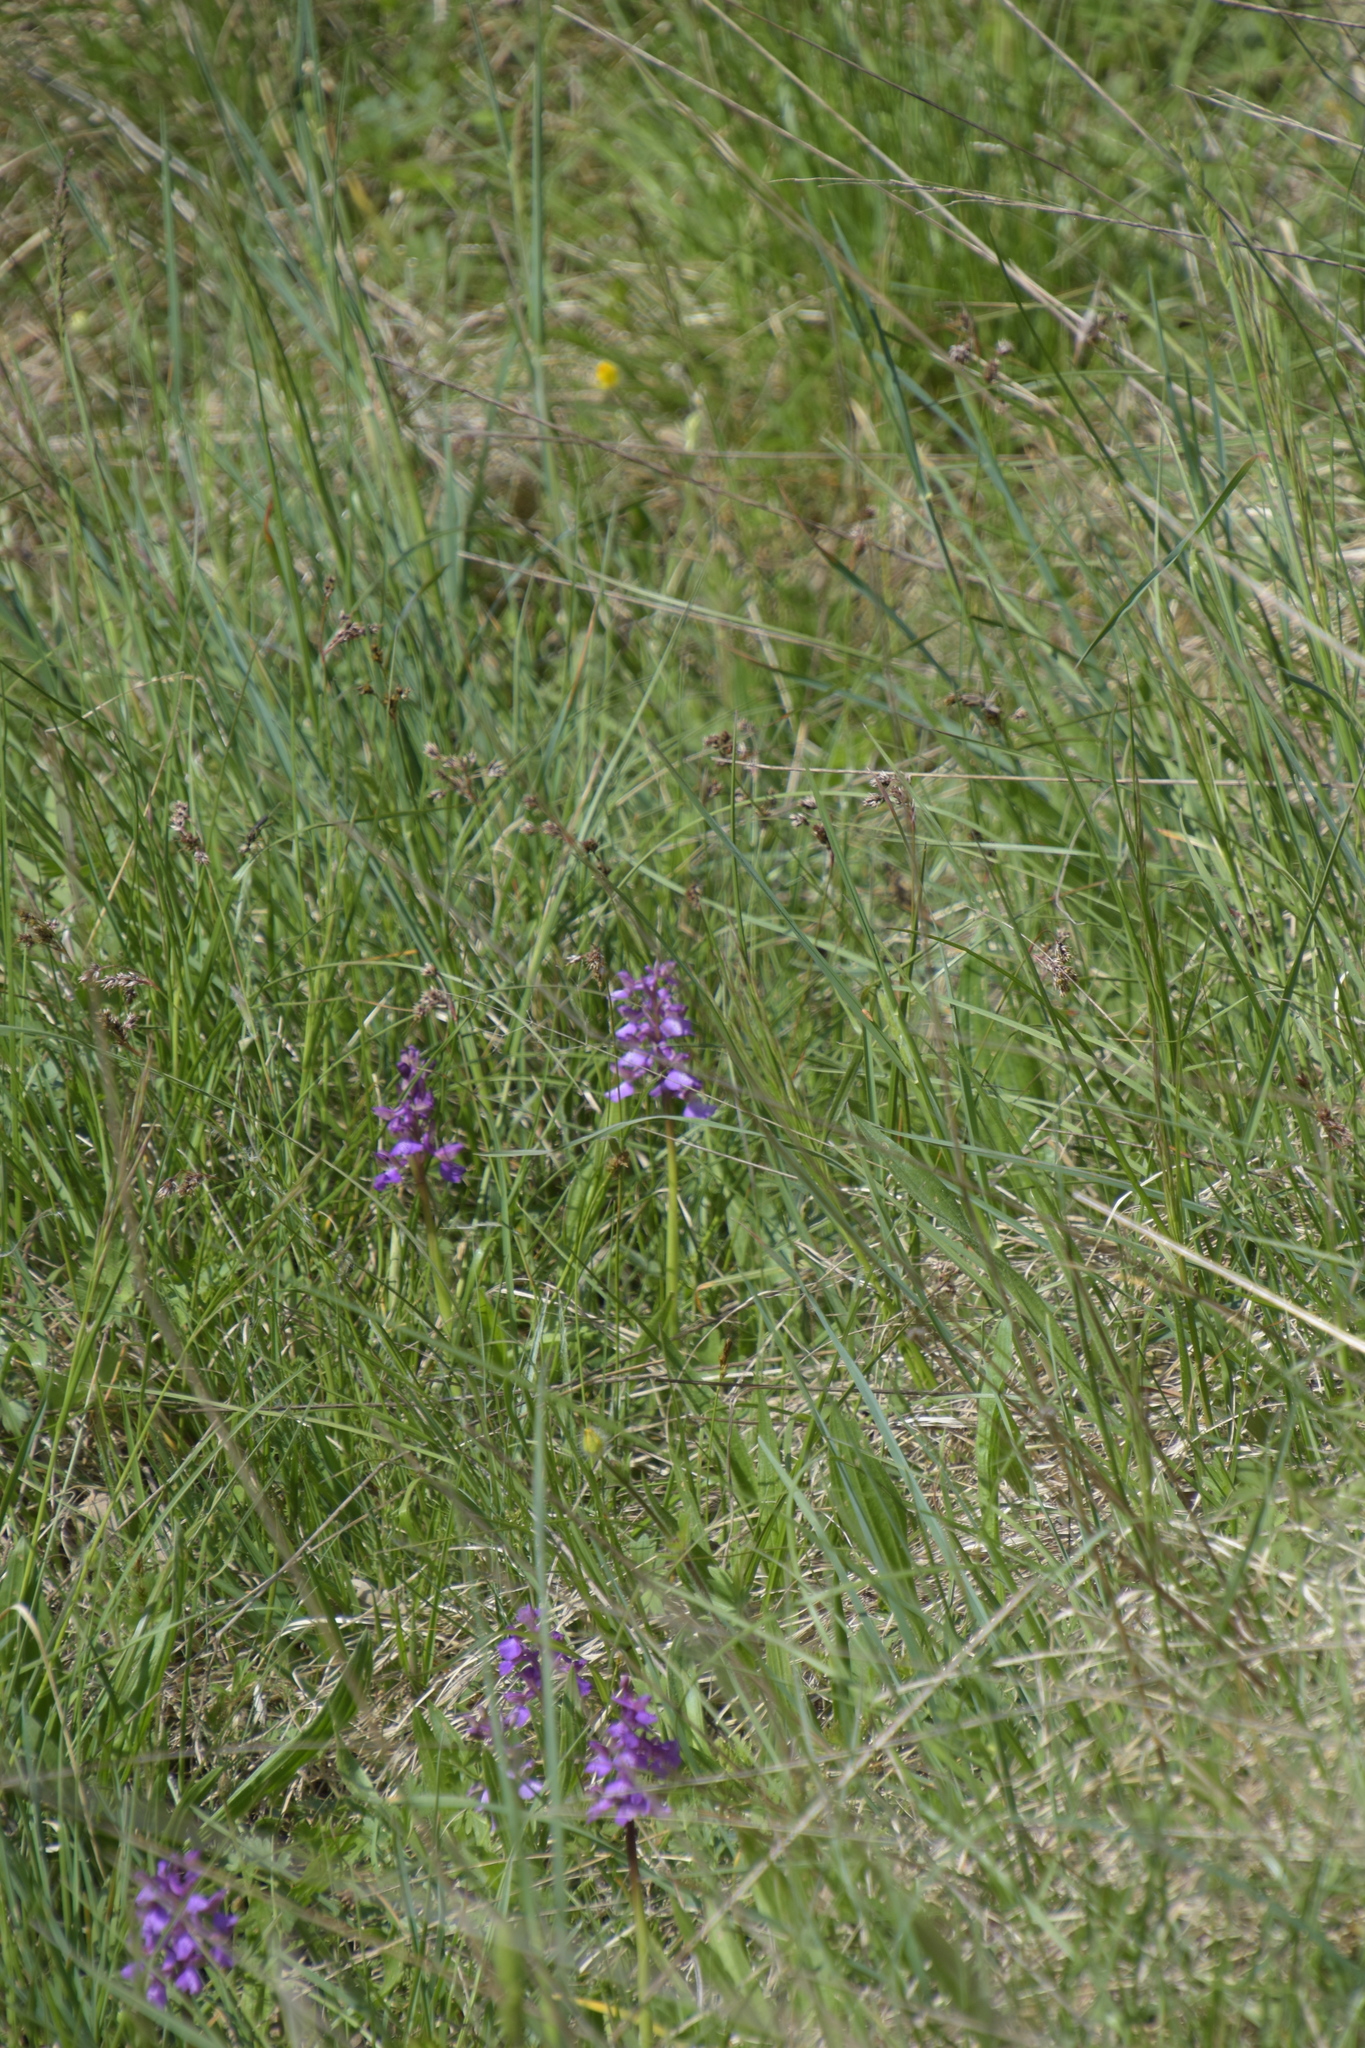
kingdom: Plantae
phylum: Tracheophyta
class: Liliopsida
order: Asparagales
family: Orchidaceae
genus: Anacamptis
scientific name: Anacamptis morio
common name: Green-winged orchid
